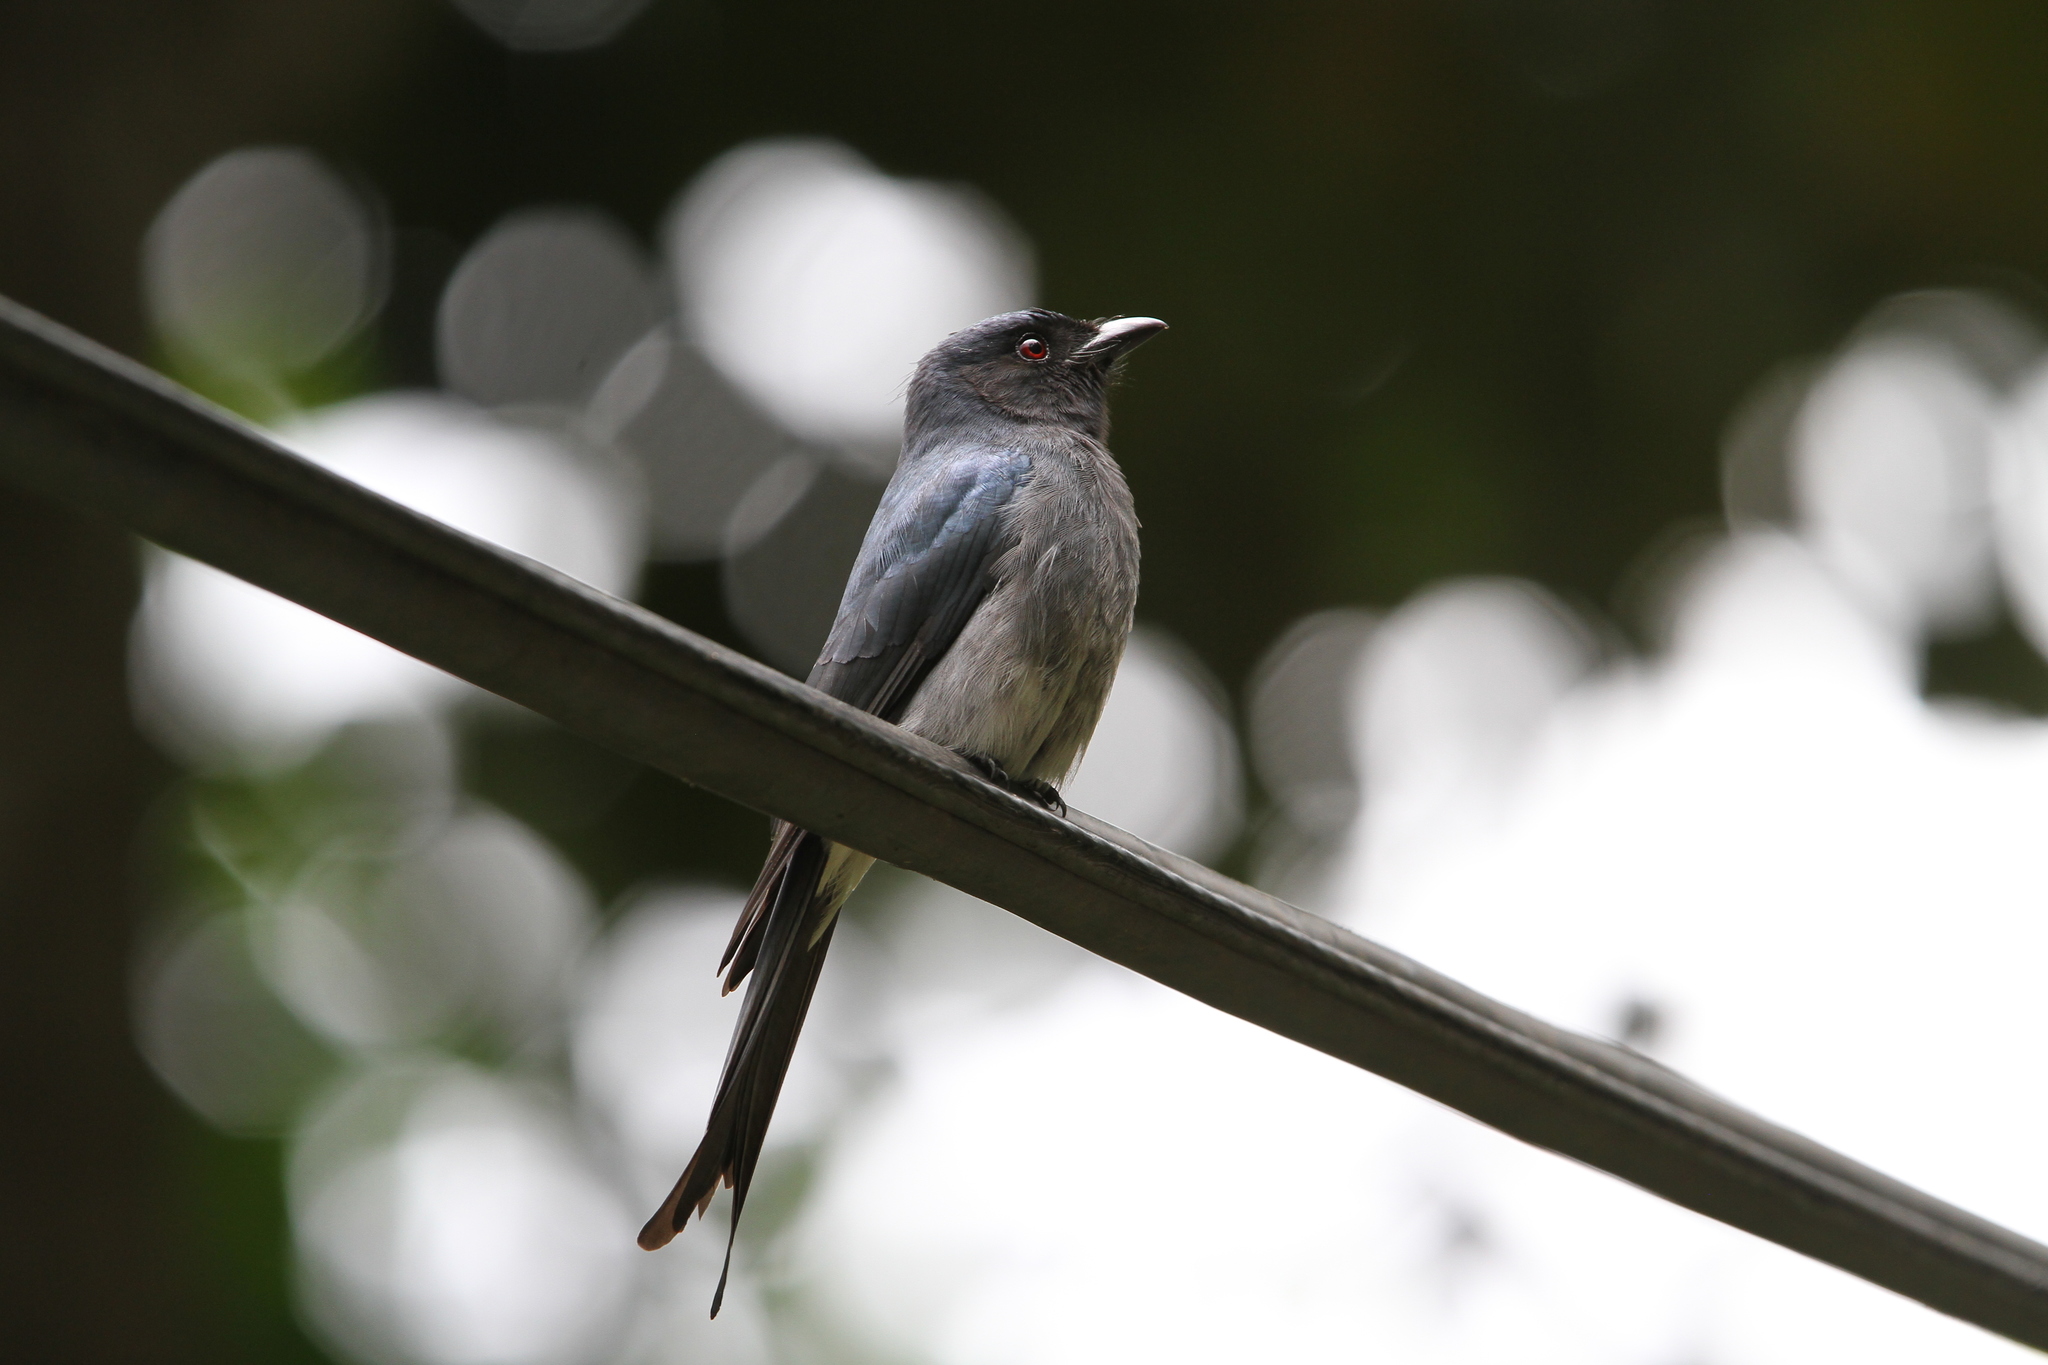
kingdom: Animalia
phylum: Chordata
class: Aves
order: Passeriformes
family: Dicruridae
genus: Dicrurus
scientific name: Dicrurus caerulescens
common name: White-bellied drongo
